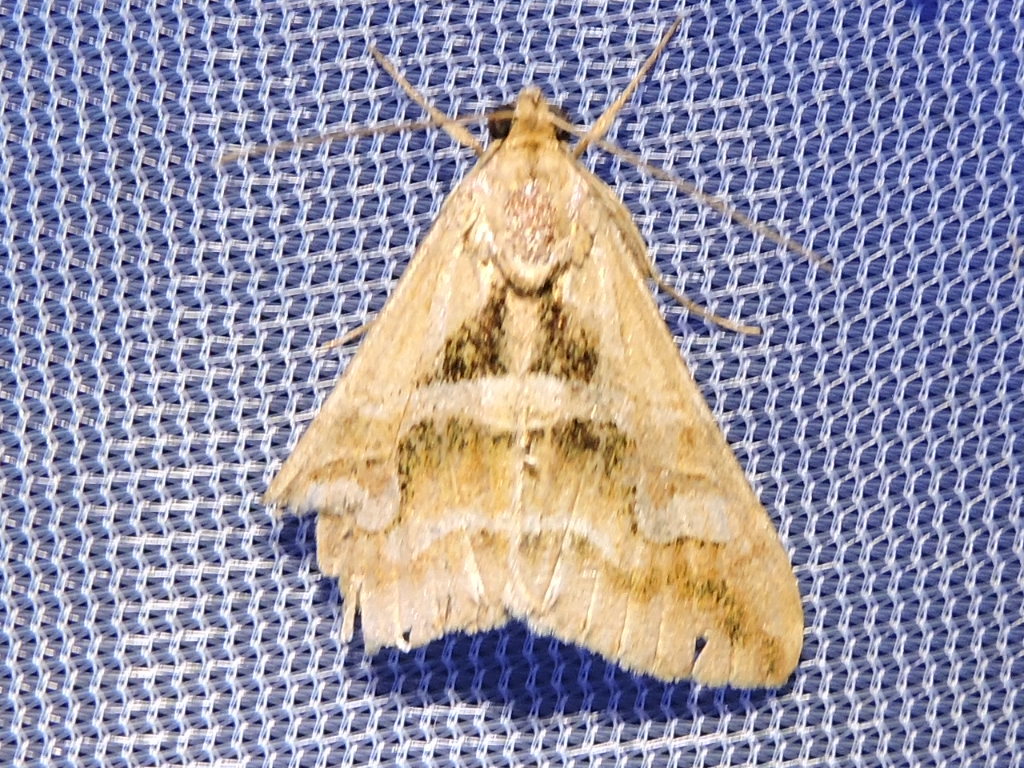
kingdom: Animalia
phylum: Arthropoda
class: Insecta
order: Lepidoptera
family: Erebidae
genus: Melipotis
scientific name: Melipotis cellaris
